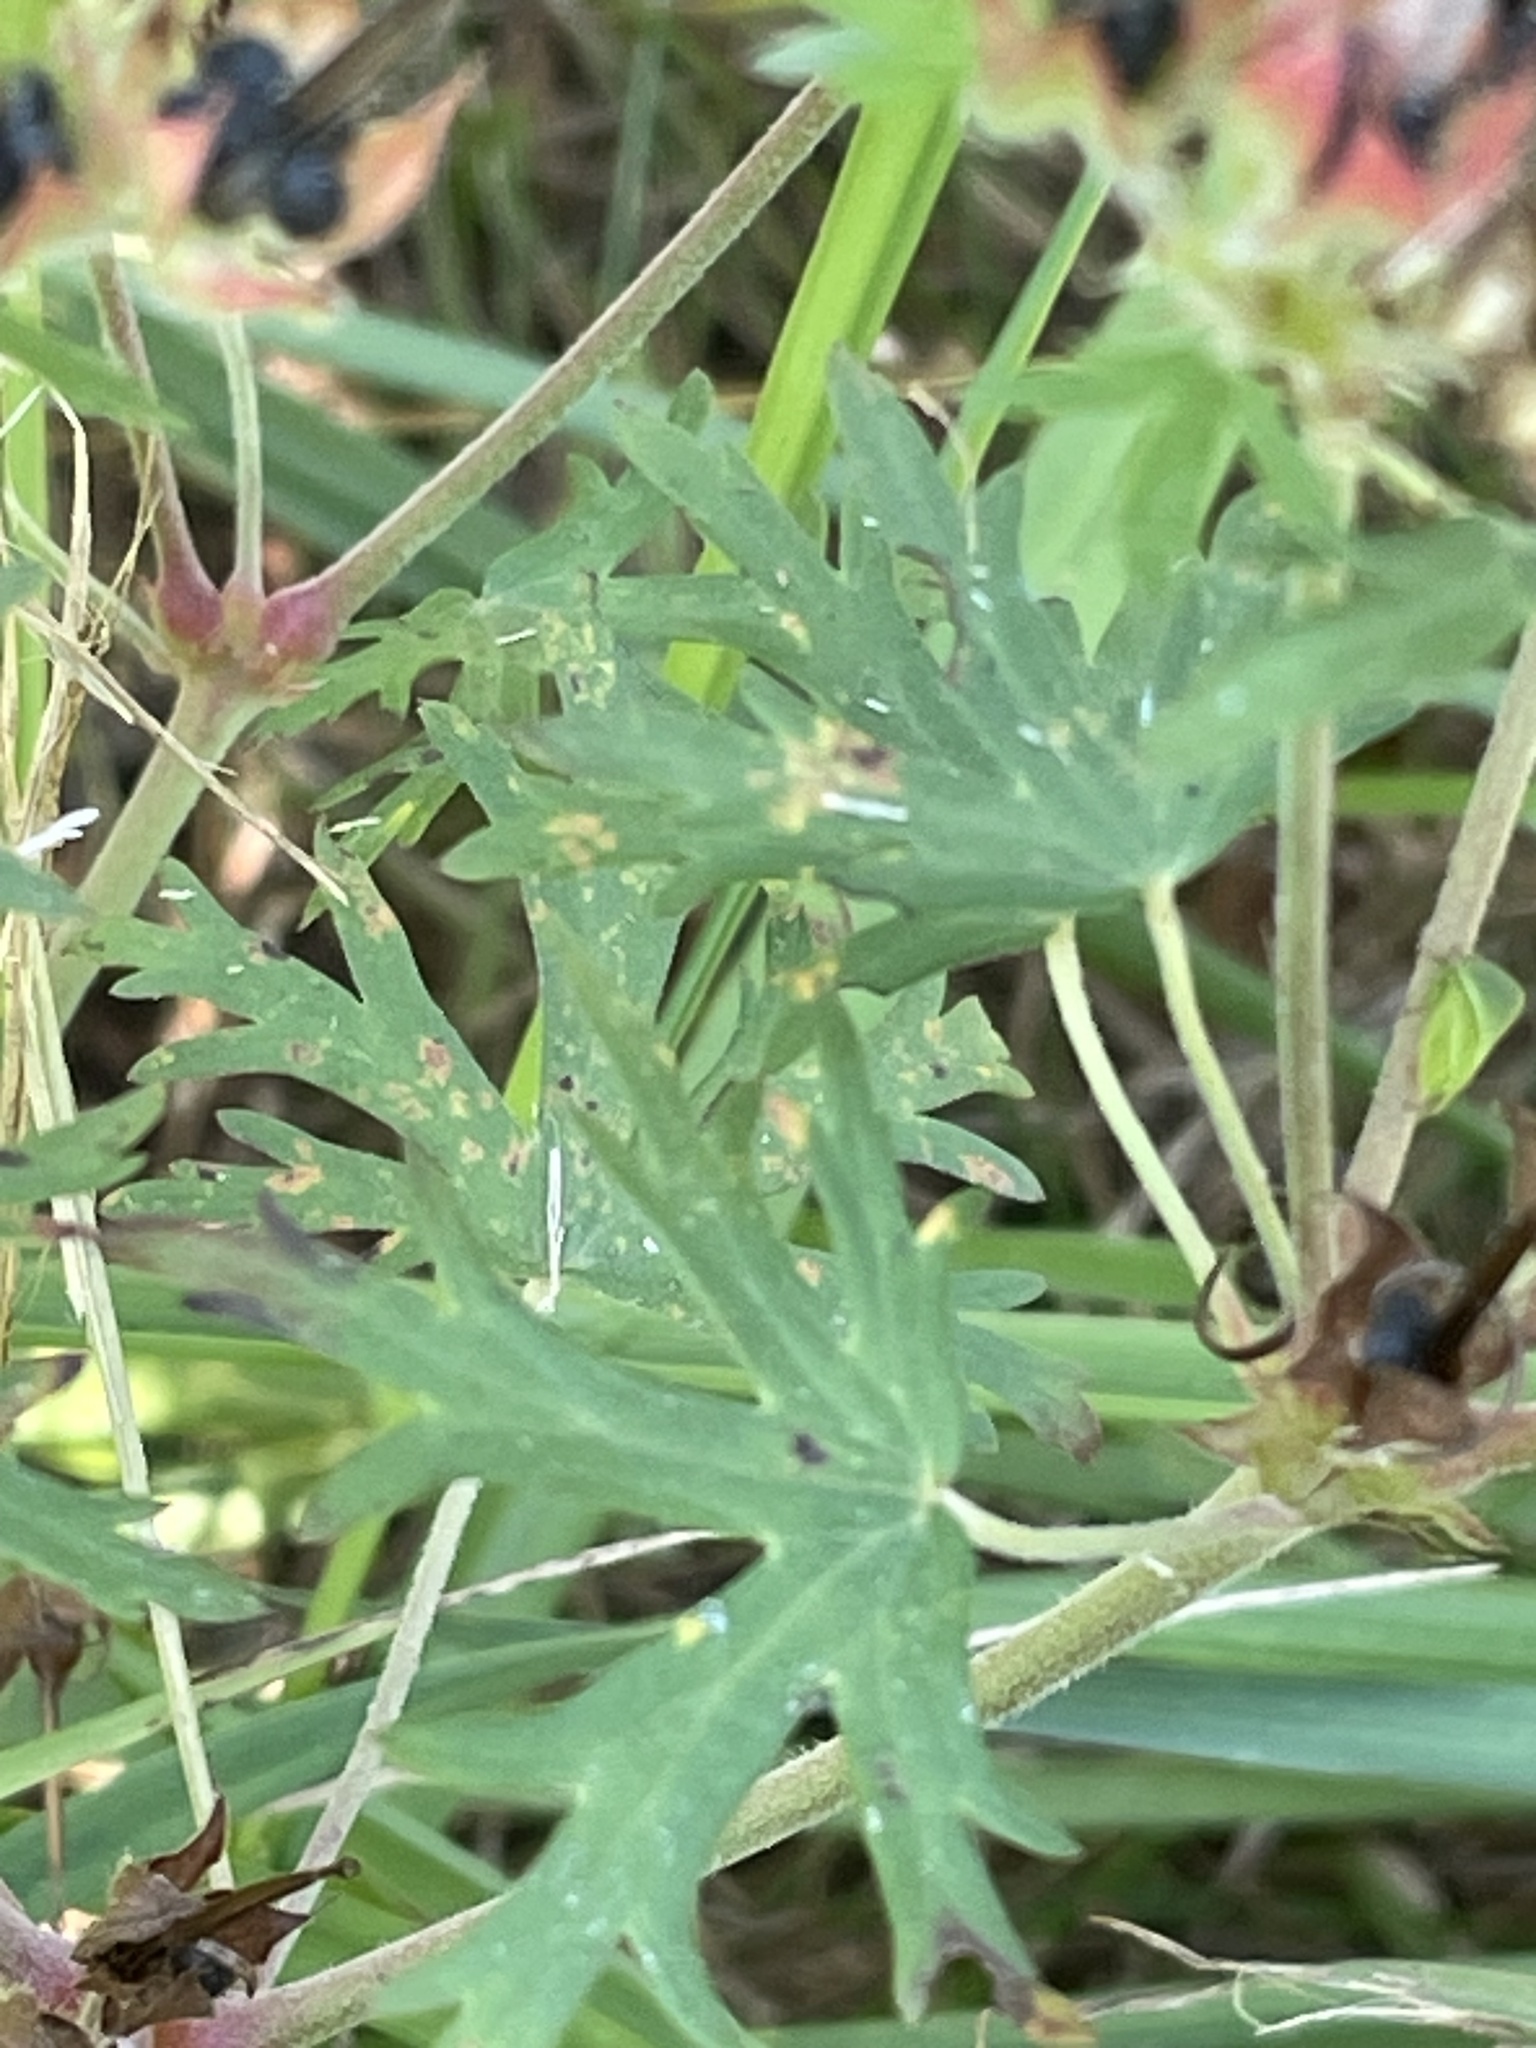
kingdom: Plantae
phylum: Tracheophyta
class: Magnoliopsida
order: Geraniales
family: Geraniaceae
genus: Geranium
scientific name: Geranium carolinianum
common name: Carolina crane's-bill
